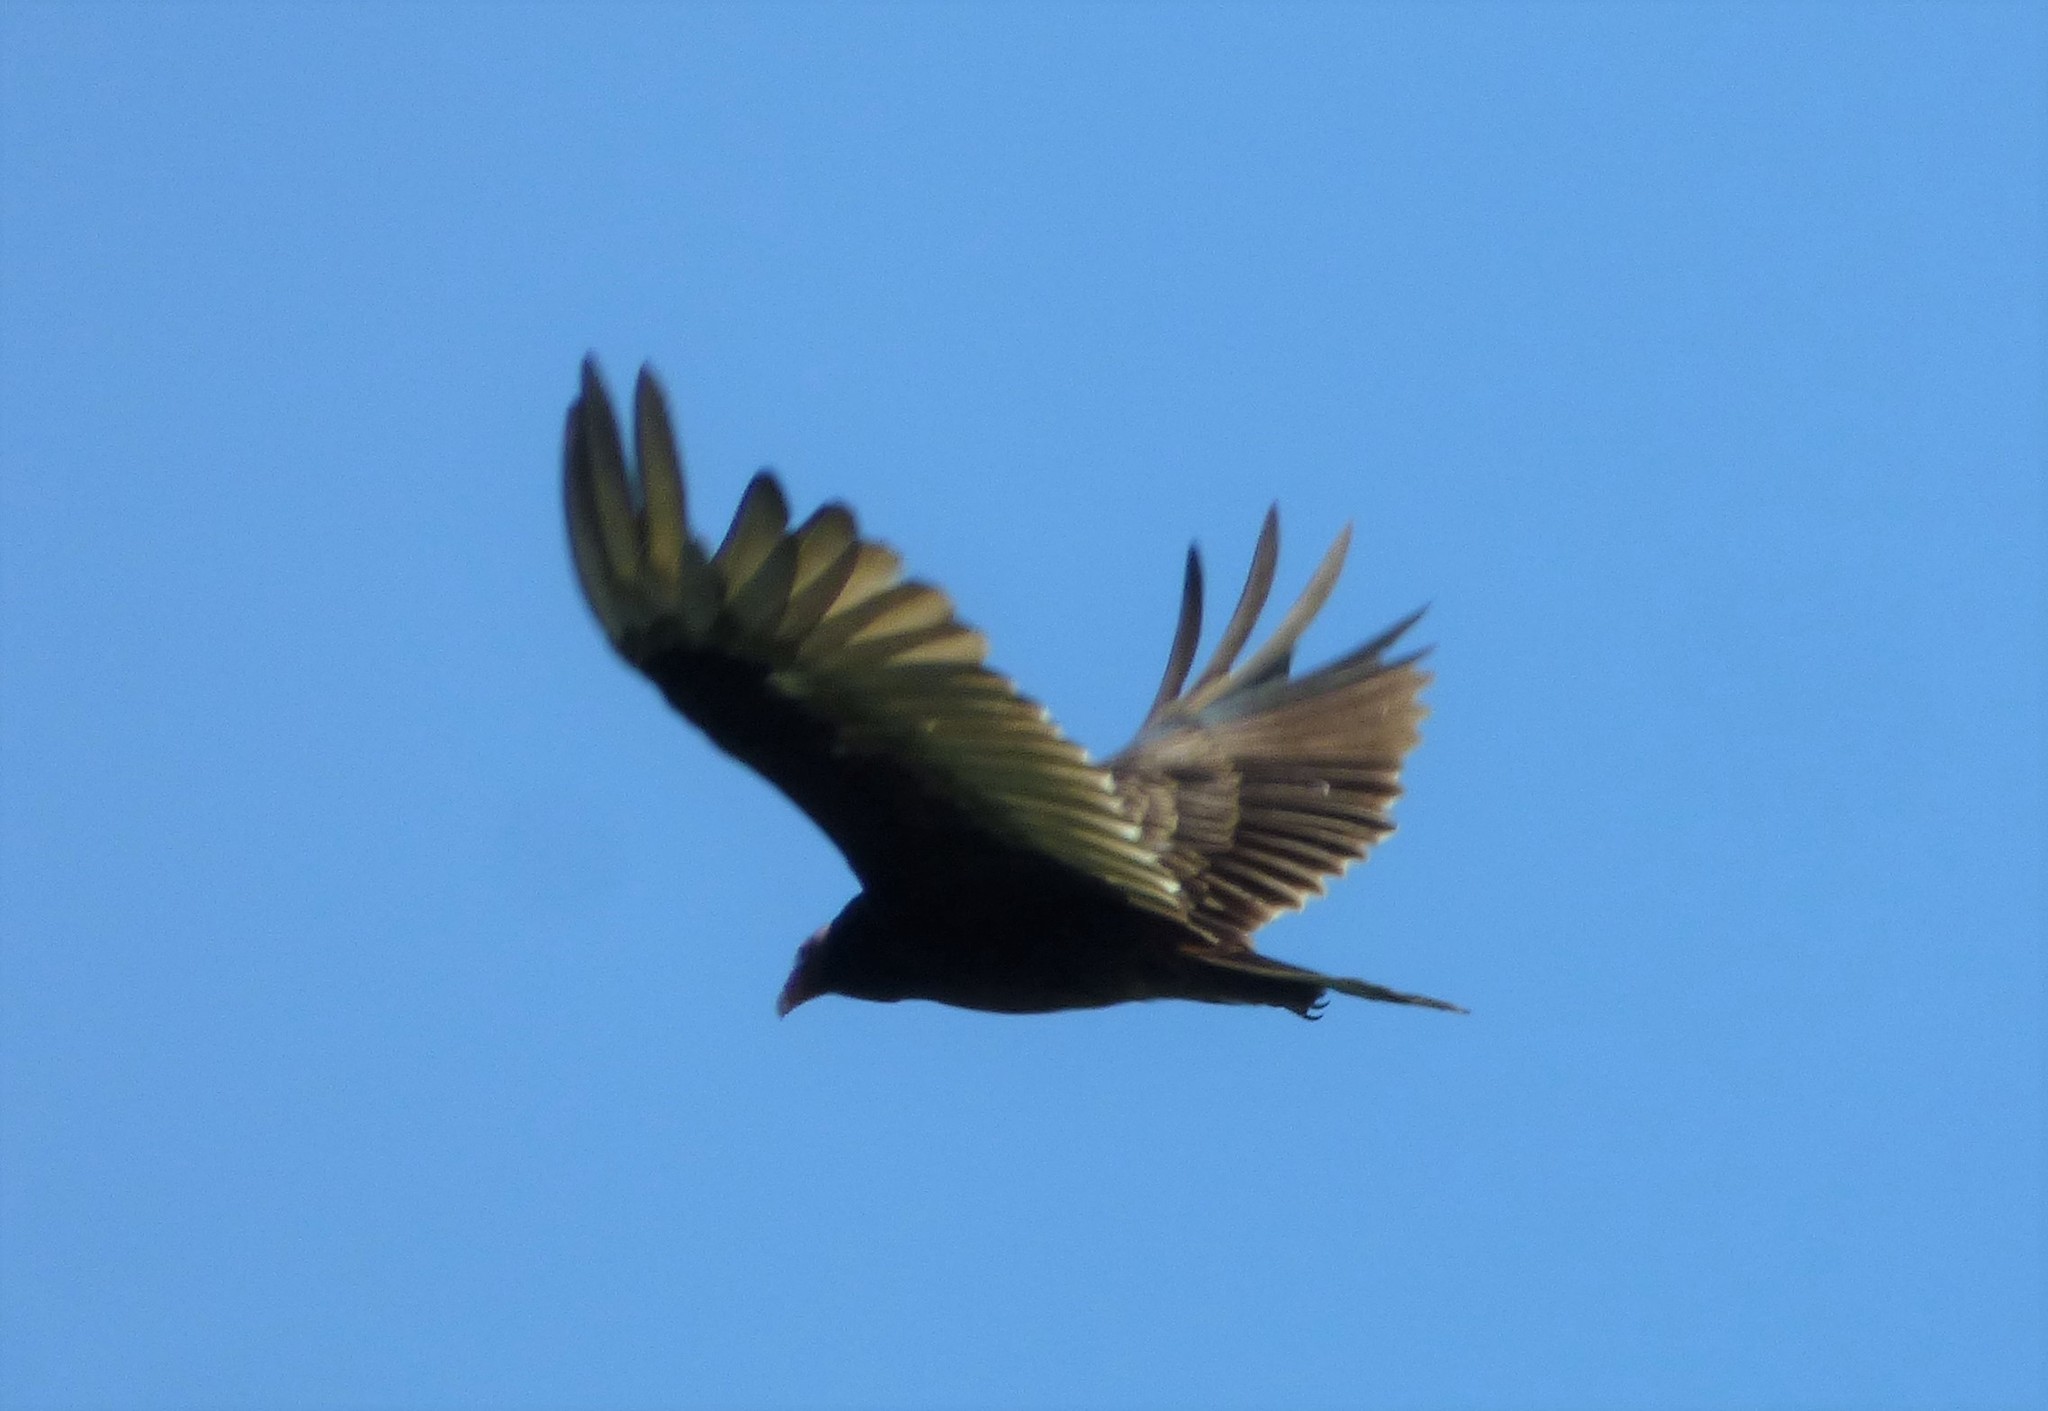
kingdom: Animalia
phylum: Chordata
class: Aves
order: Accipitriformes
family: Cathartidae
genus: Cathartes
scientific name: Cathartes aura
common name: Turkey vulture
